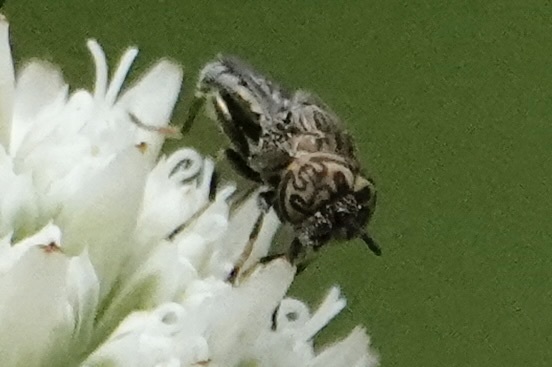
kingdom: Animalia
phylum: Arthropoda
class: Insecta
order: Diptera
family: Syrphidae
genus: Orthonevra
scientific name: Orthonevra nitida
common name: Wavy mucksucker
